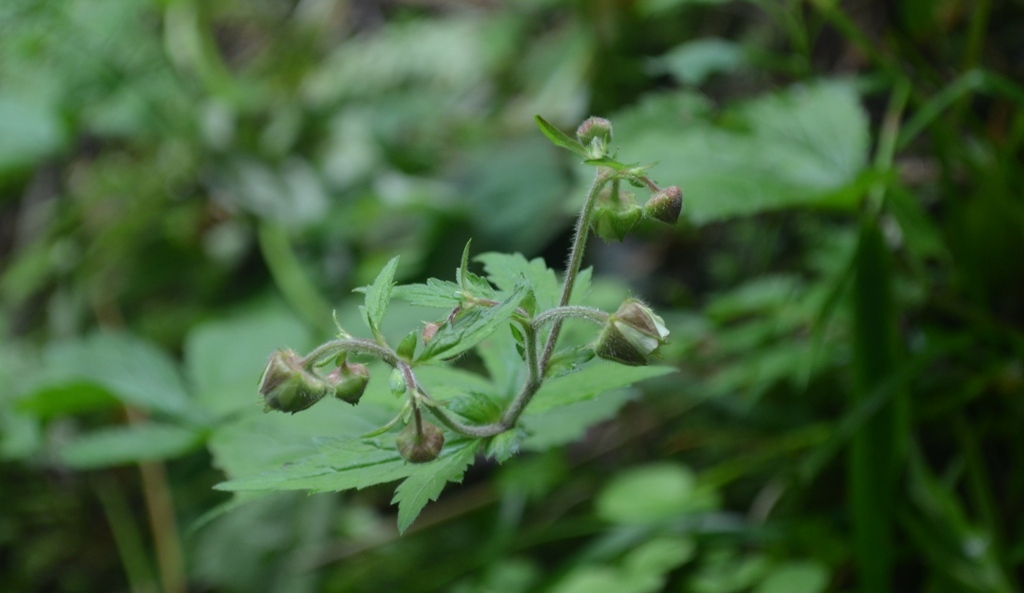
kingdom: Plantae
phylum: Tracheophyta
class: Magnoliopsida
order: Rosales
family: Rosaceae
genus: Geum
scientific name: Geum geniculatum
